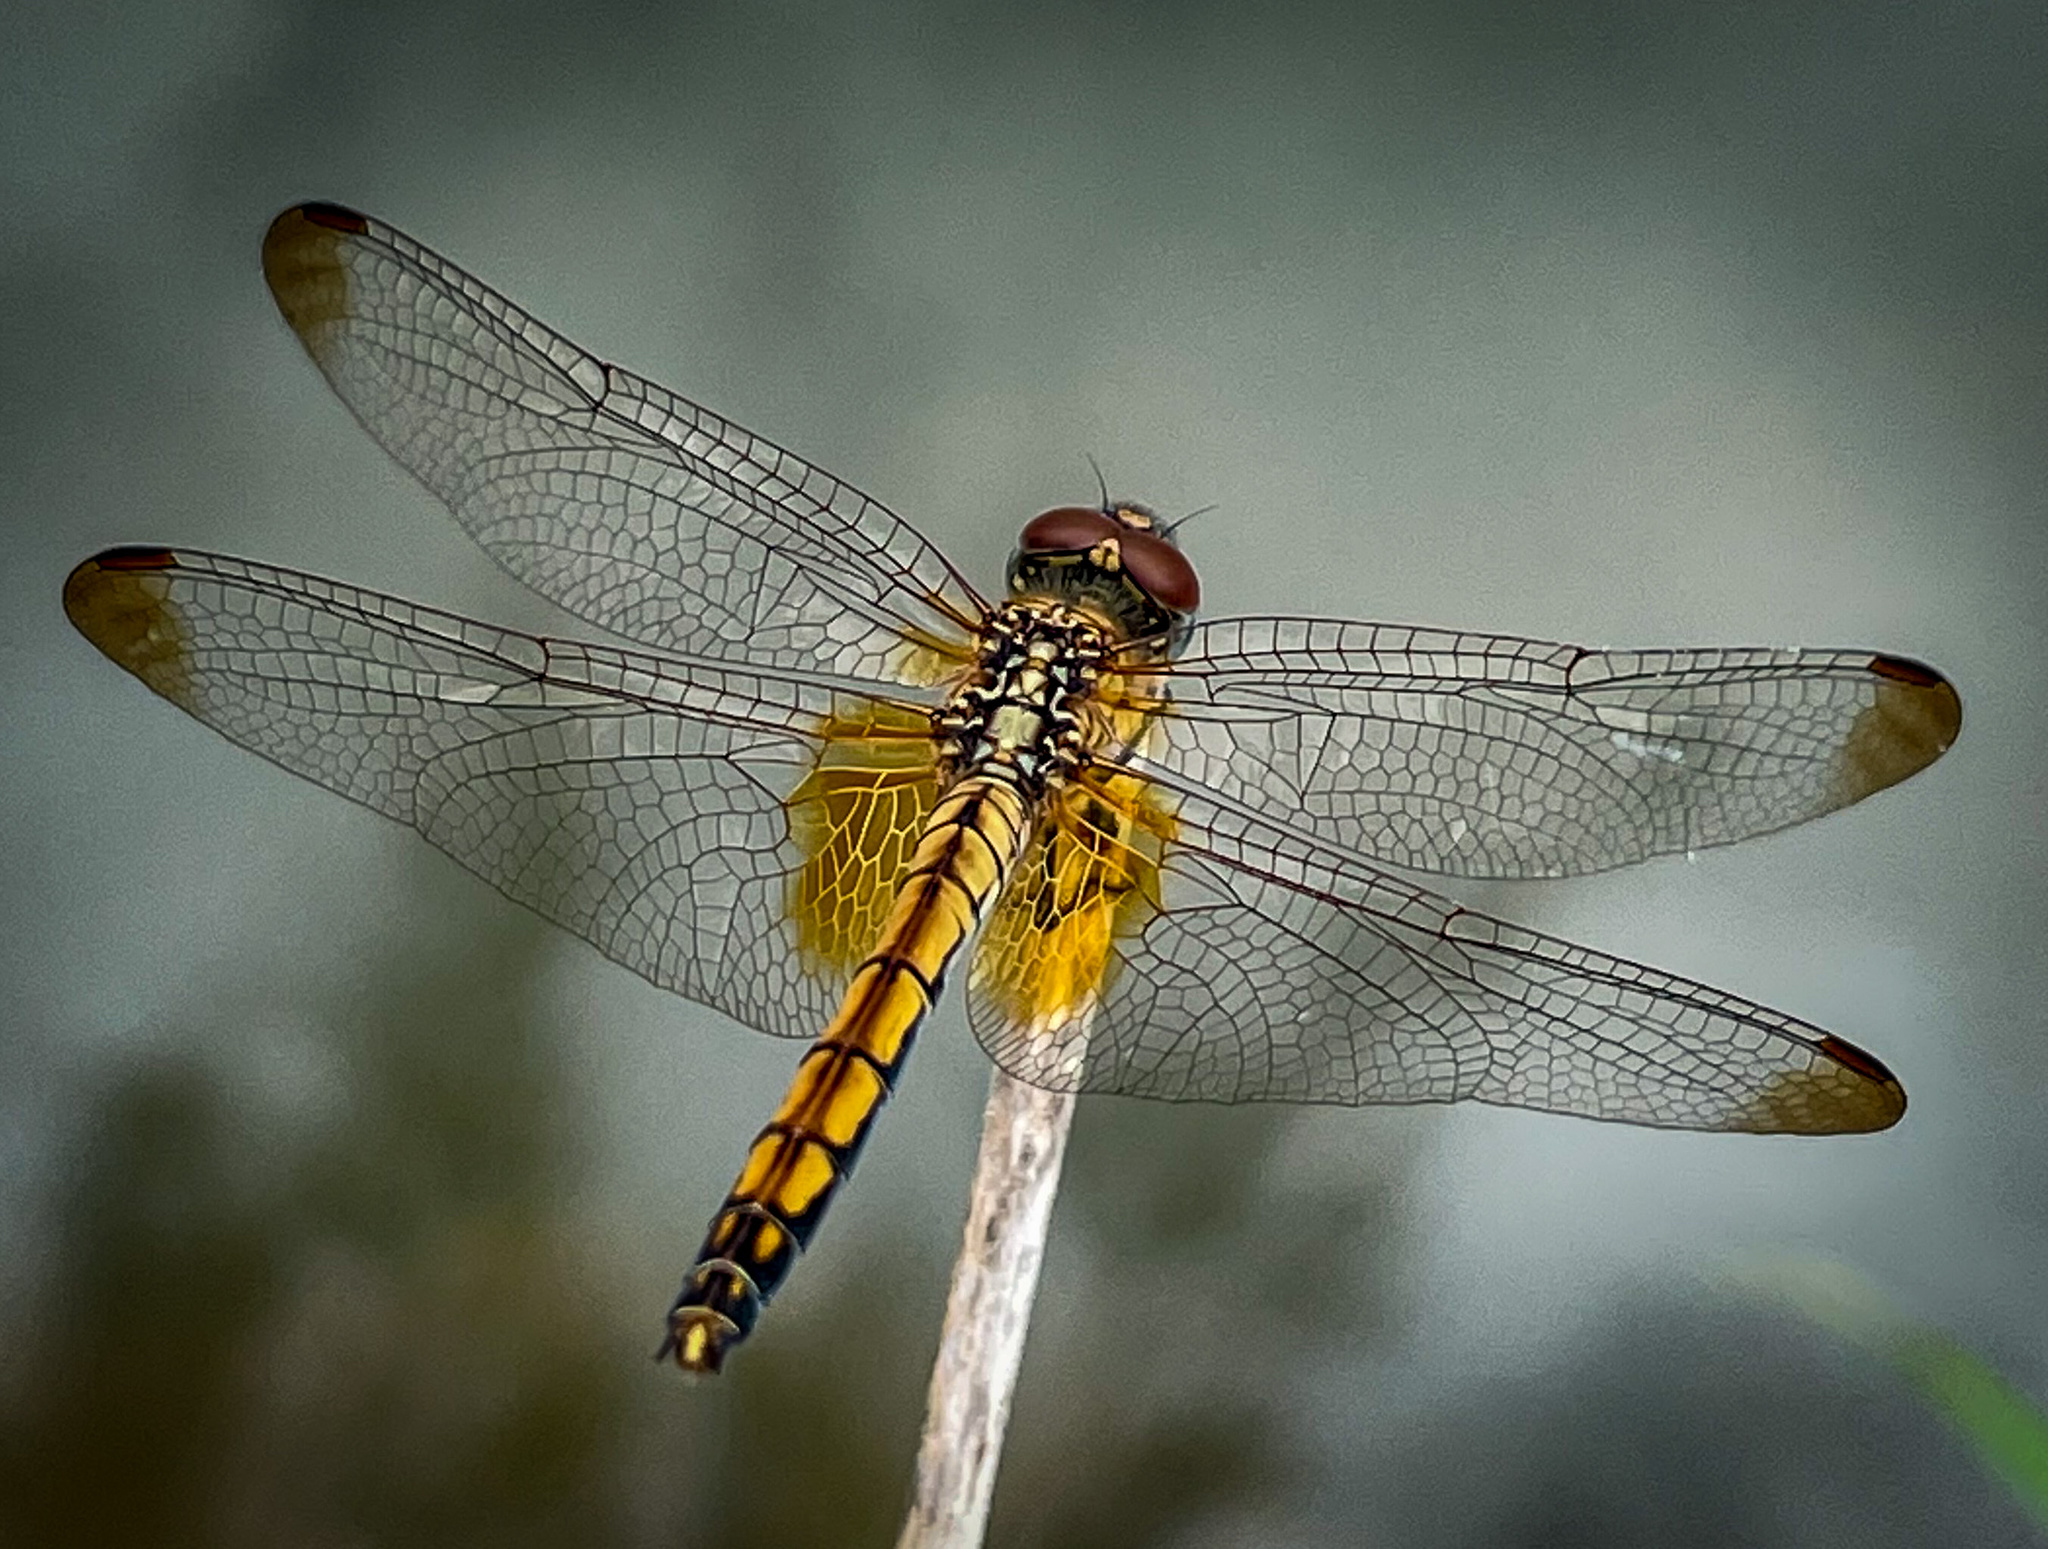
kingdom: Animalia
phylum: Arthropoda
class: Insecta
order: Odonata
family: Libellulidae
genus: Trithemis
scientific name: Trithemis aurora
